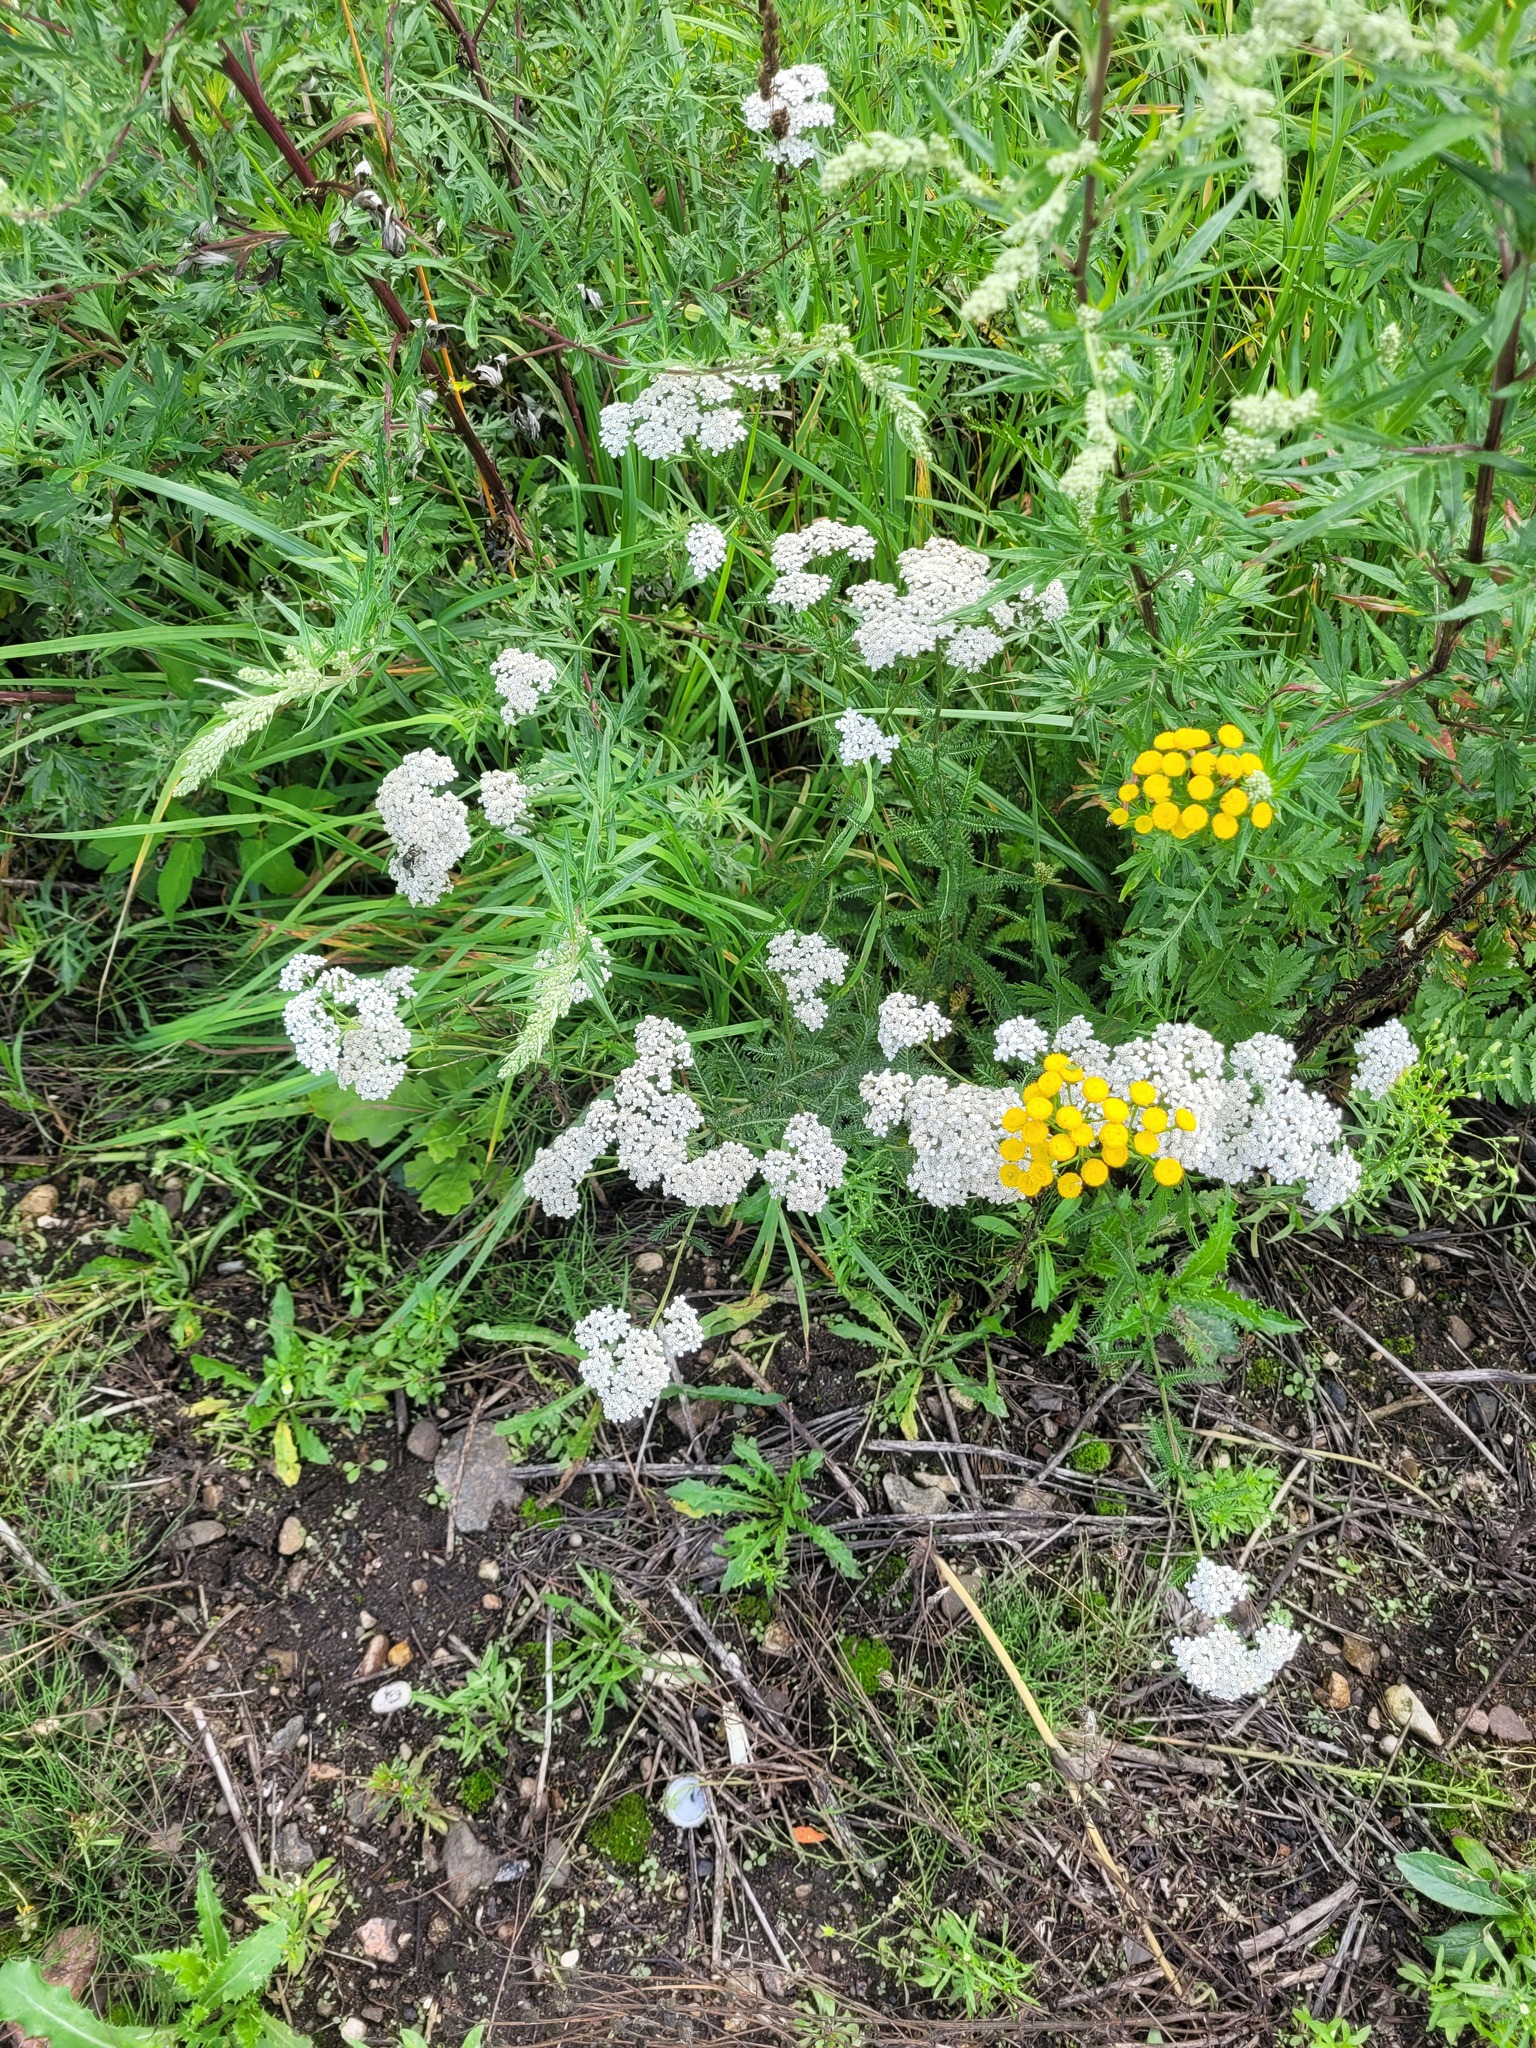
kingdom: Plantae
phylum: Tracheophyta
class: Magnoliopsida
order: Asterales
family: Asteraceae
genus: Achillea
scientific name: Achillea millefolium
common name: Yarrow
